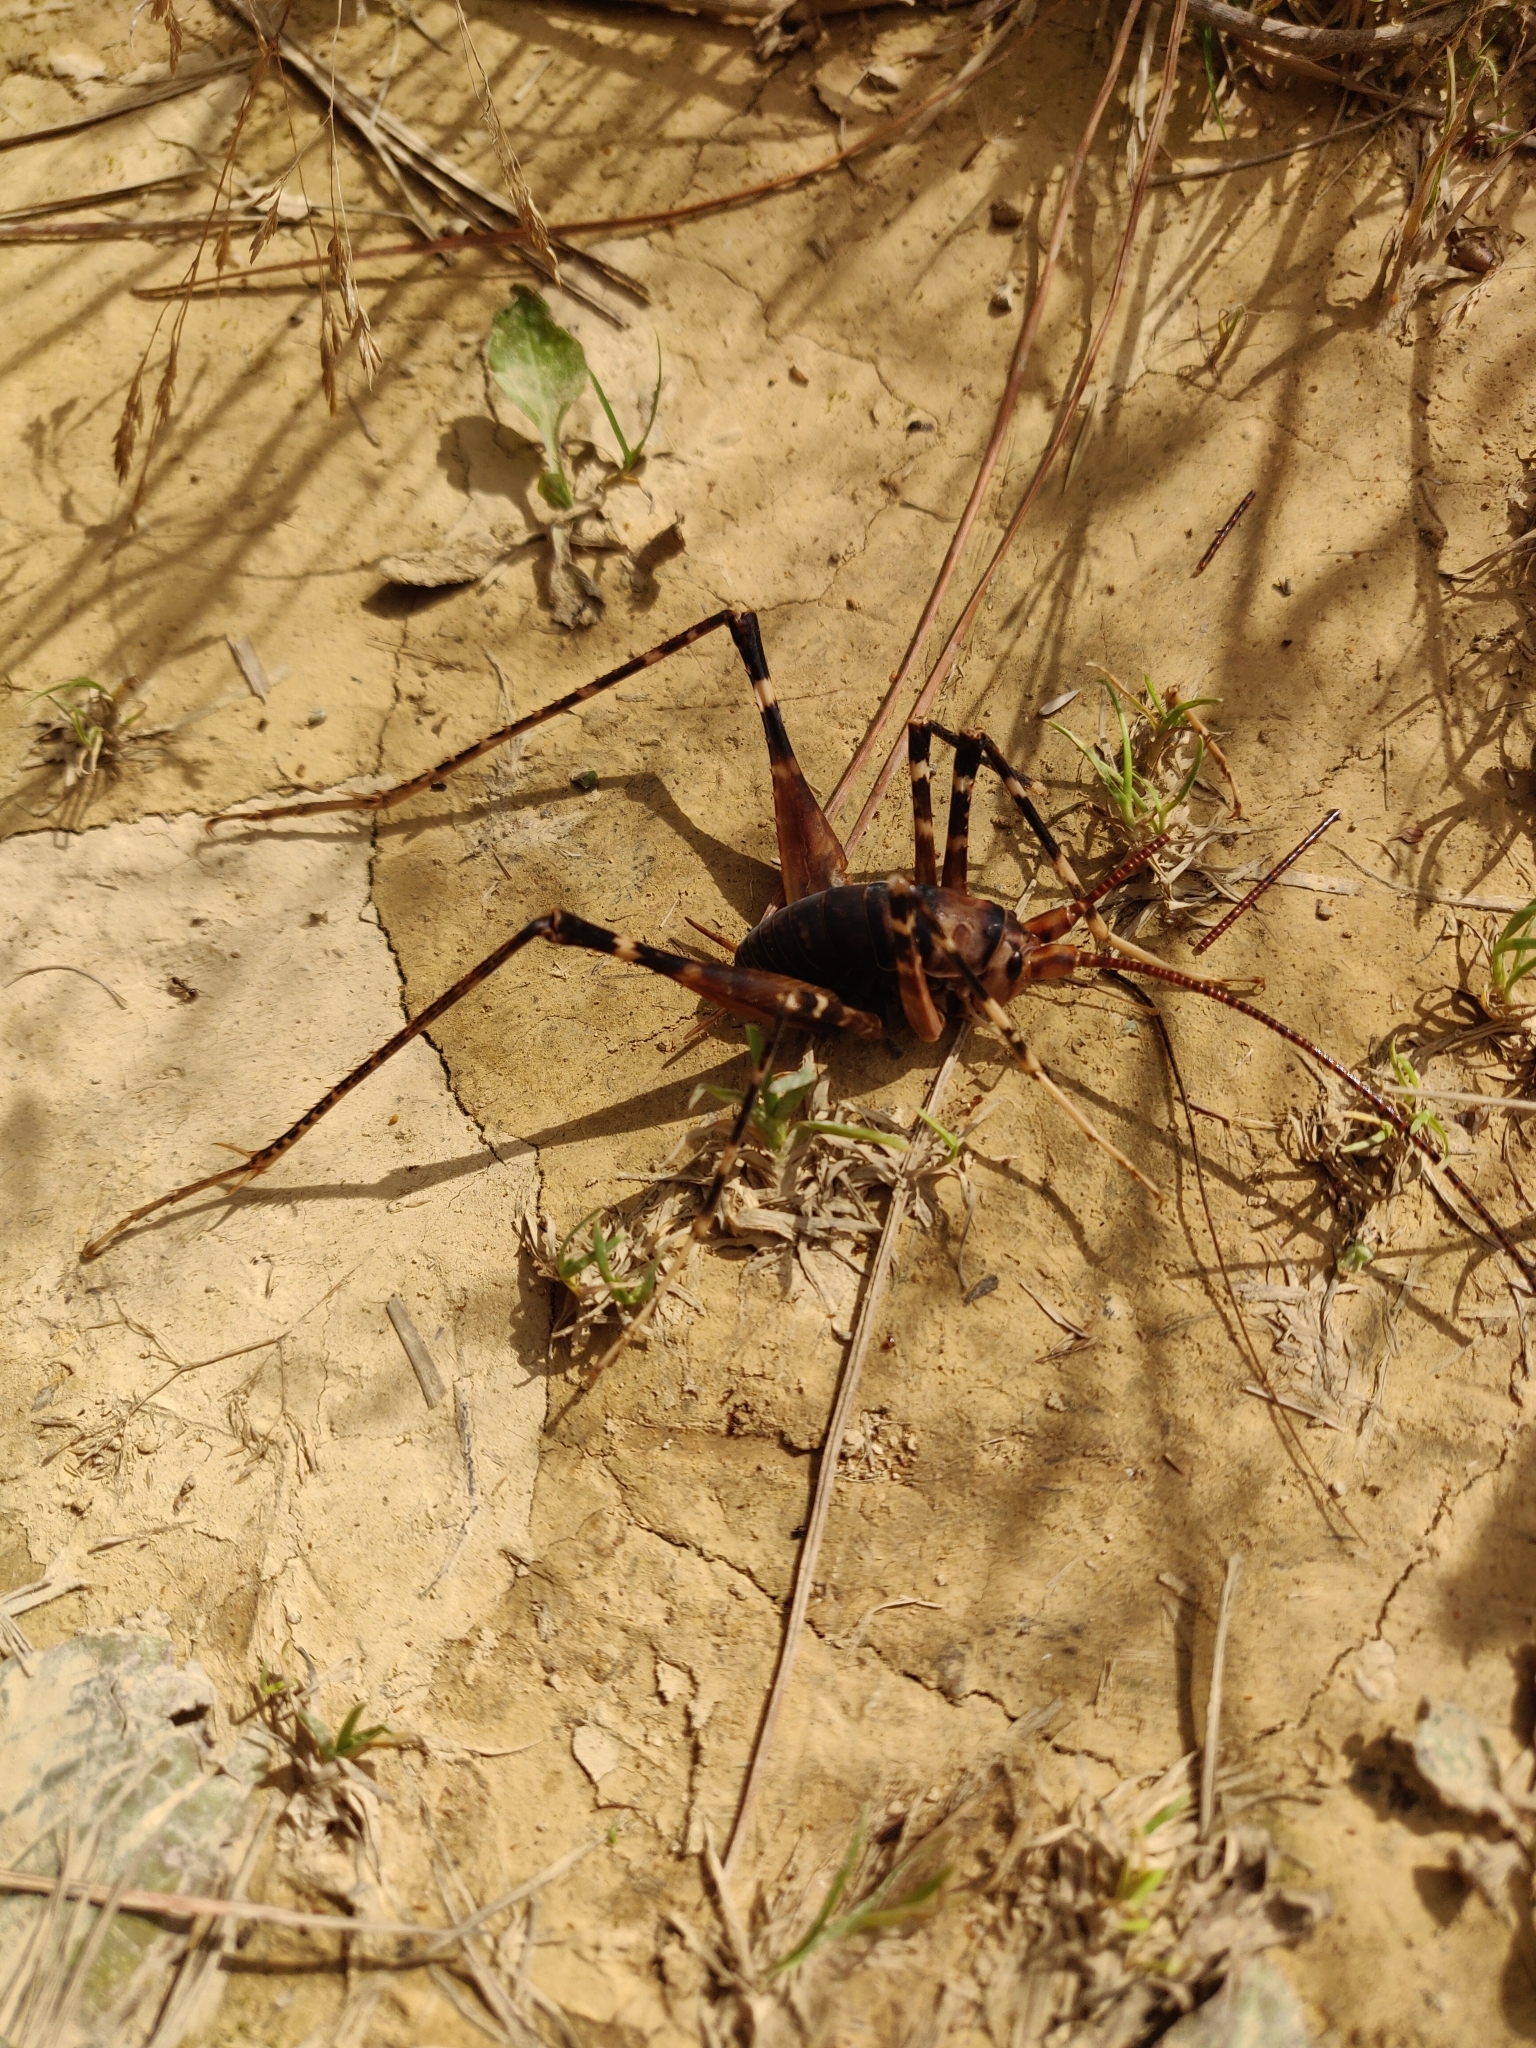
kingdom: Animalia
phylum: Arthropoda
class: Insecta
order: Orthoptera
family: Rhaphidophoridae
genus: Pachyrhamma
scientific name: Pachyrhamma edwardsii
